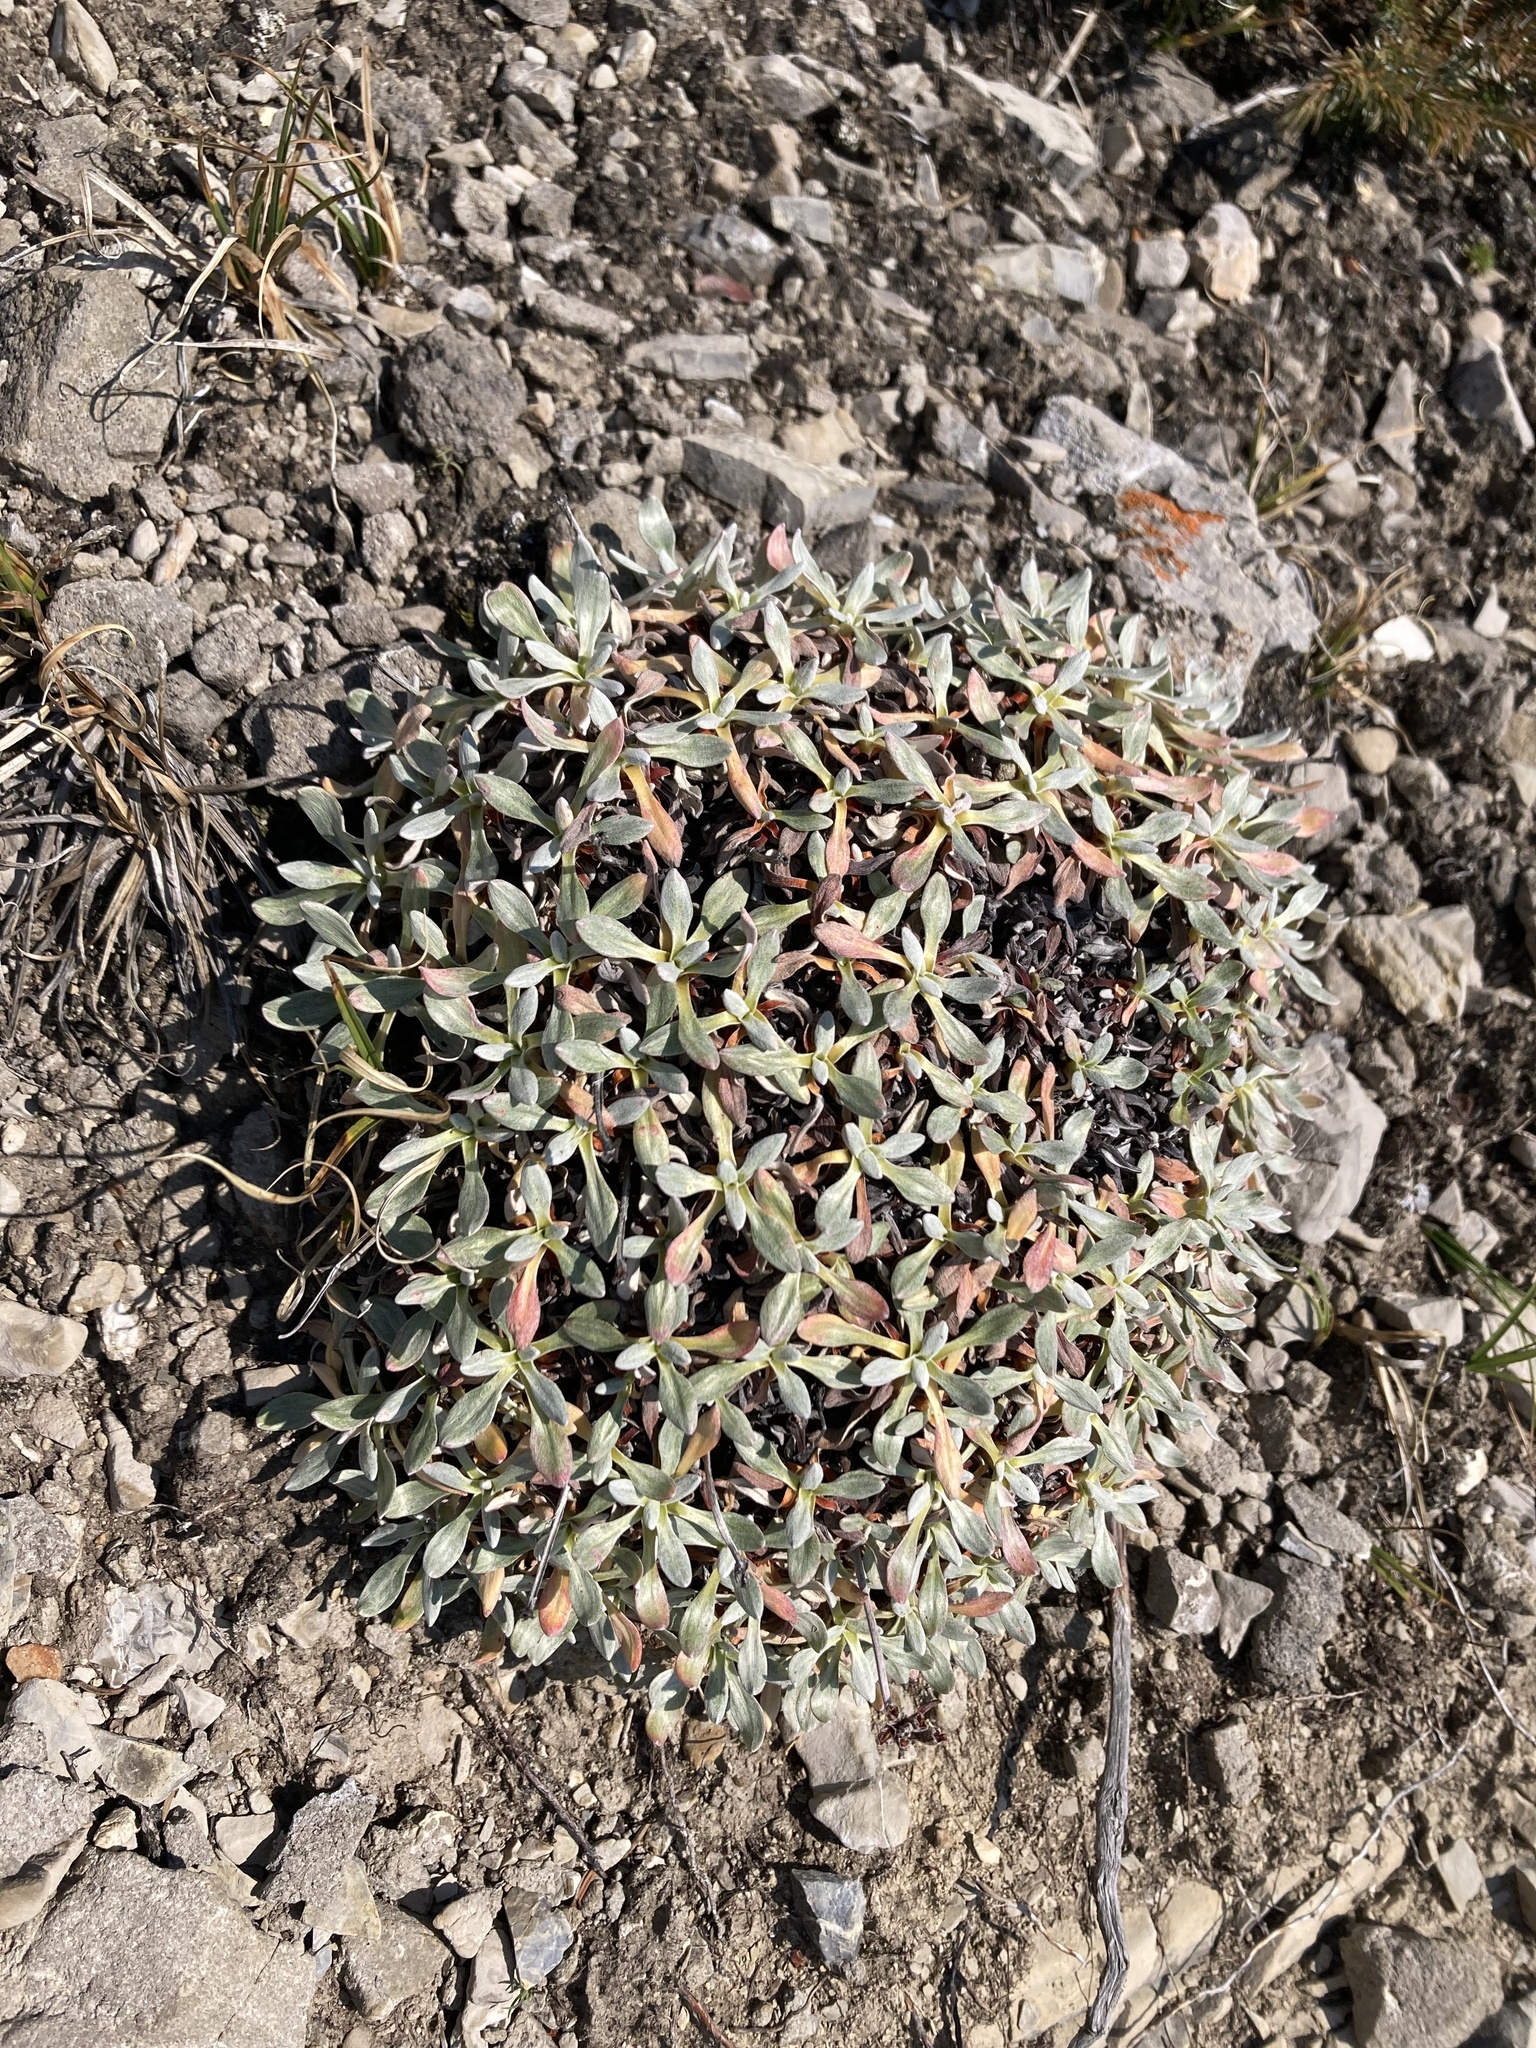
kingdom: Plantae
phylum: Tracheophyta
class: Magnoliopsida
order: Caryophyllales
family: Polygonaceae
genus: Eriogonum
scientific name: Eriogonum androsaceum
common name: Rock-jasmine wild buckwheat
